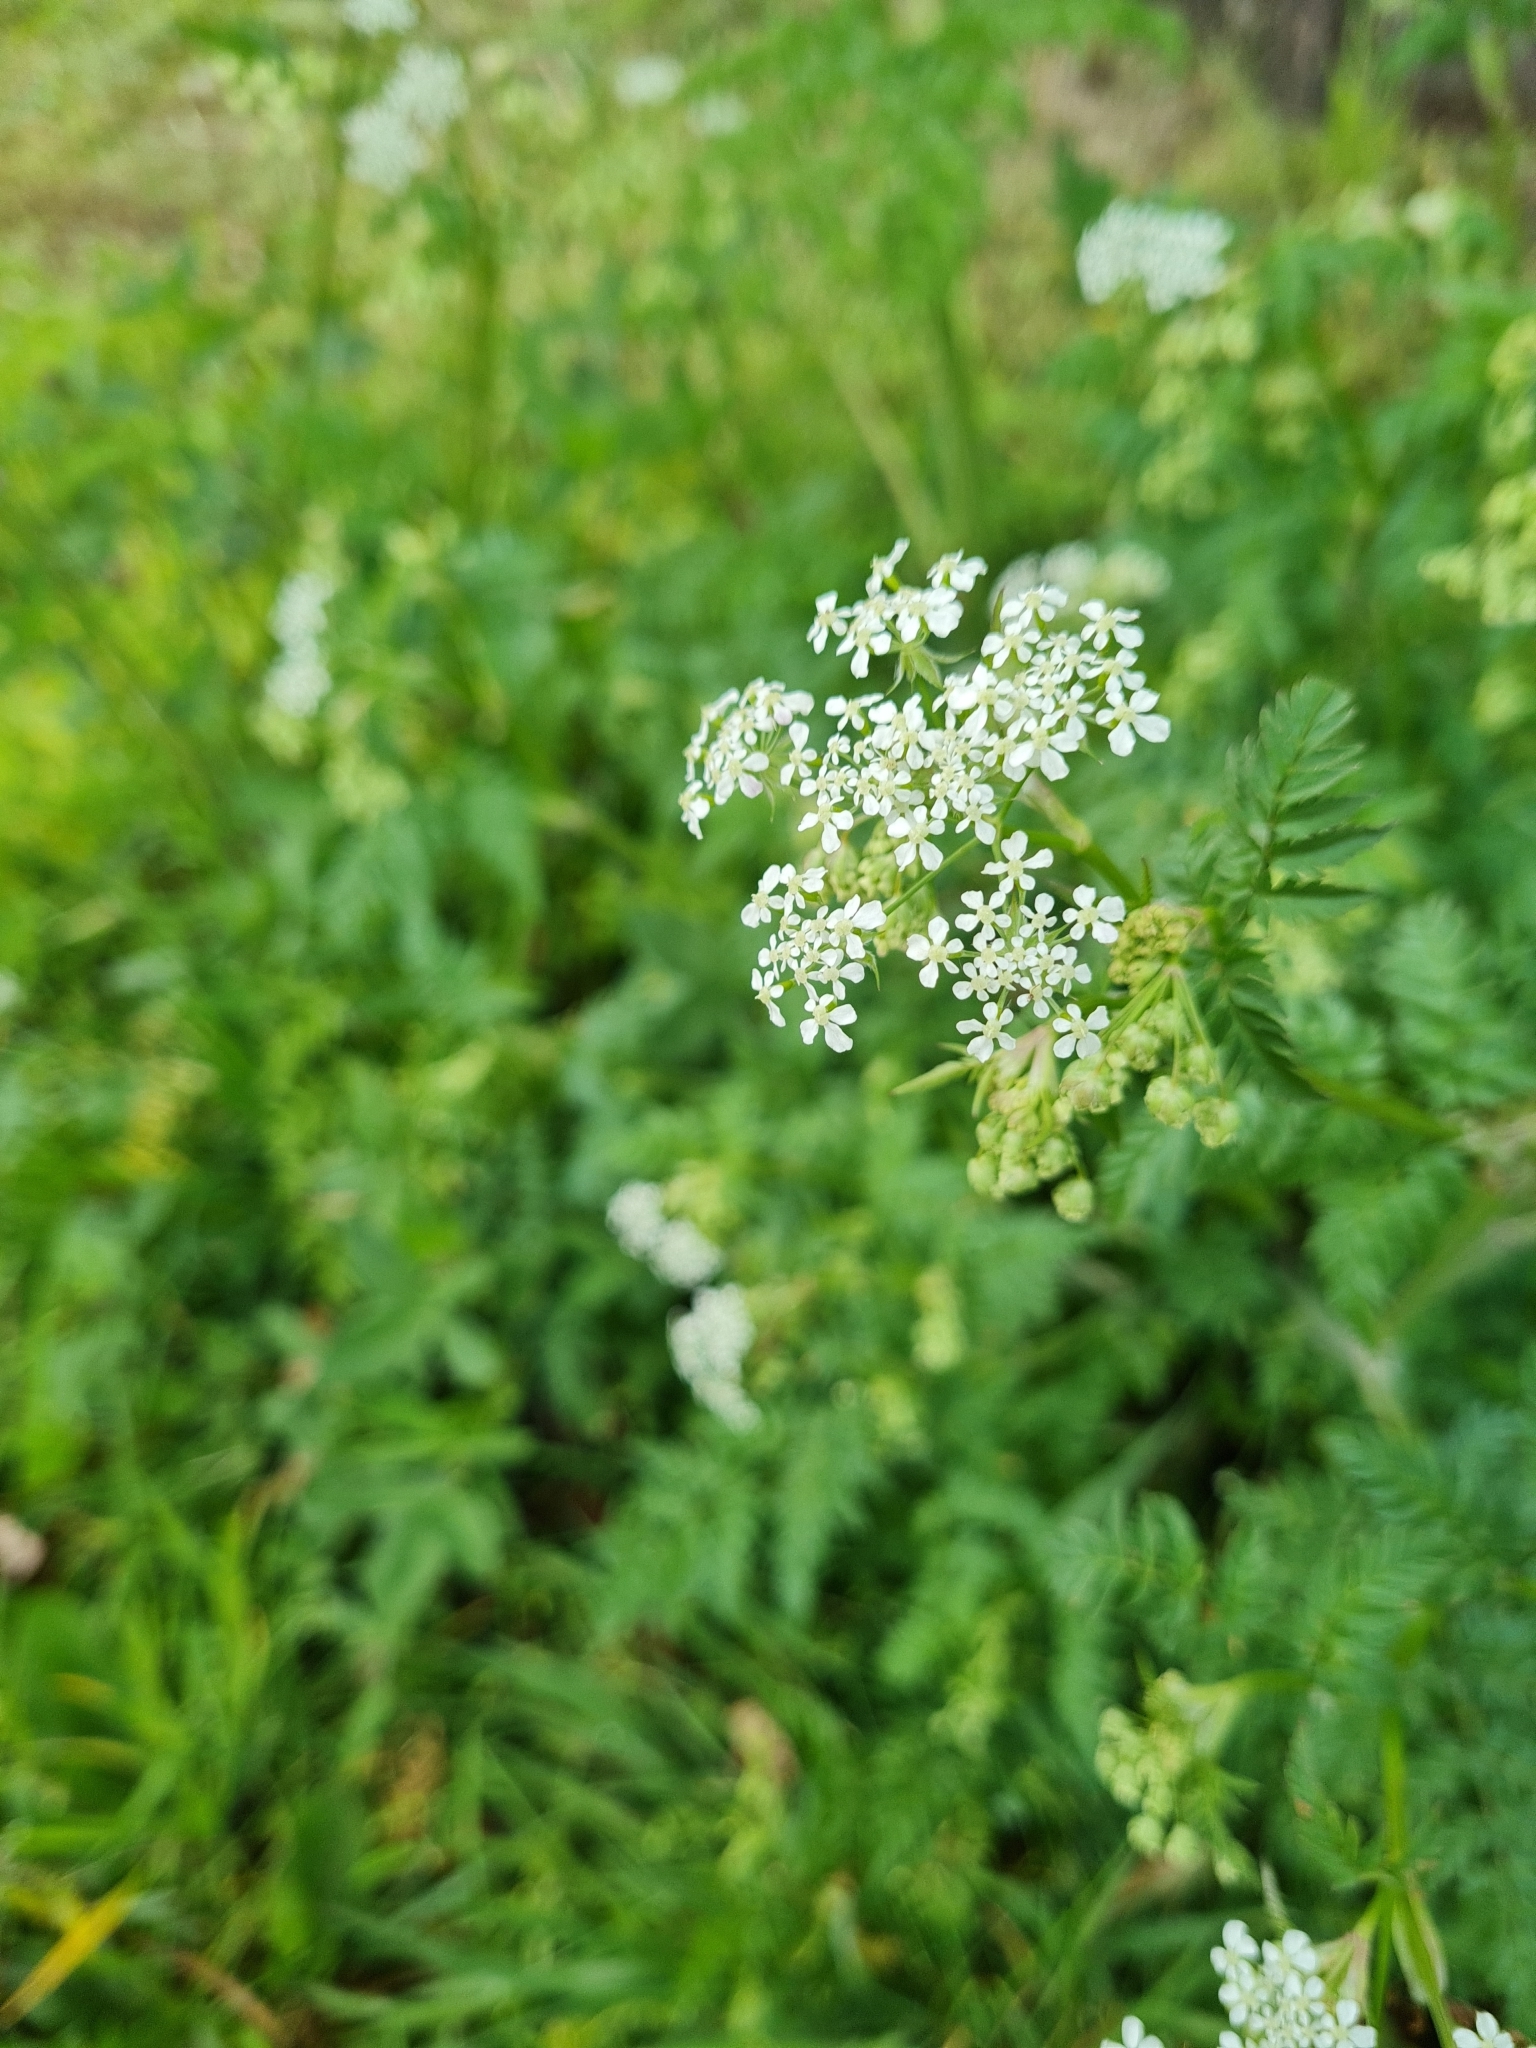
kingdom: Plantae
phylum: Tracheophyta
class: Magnoliopsida
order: Apiales
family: Apiaceae
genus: Anthriscus
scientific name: Anthriscus sylvestris
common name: Cow parsley
